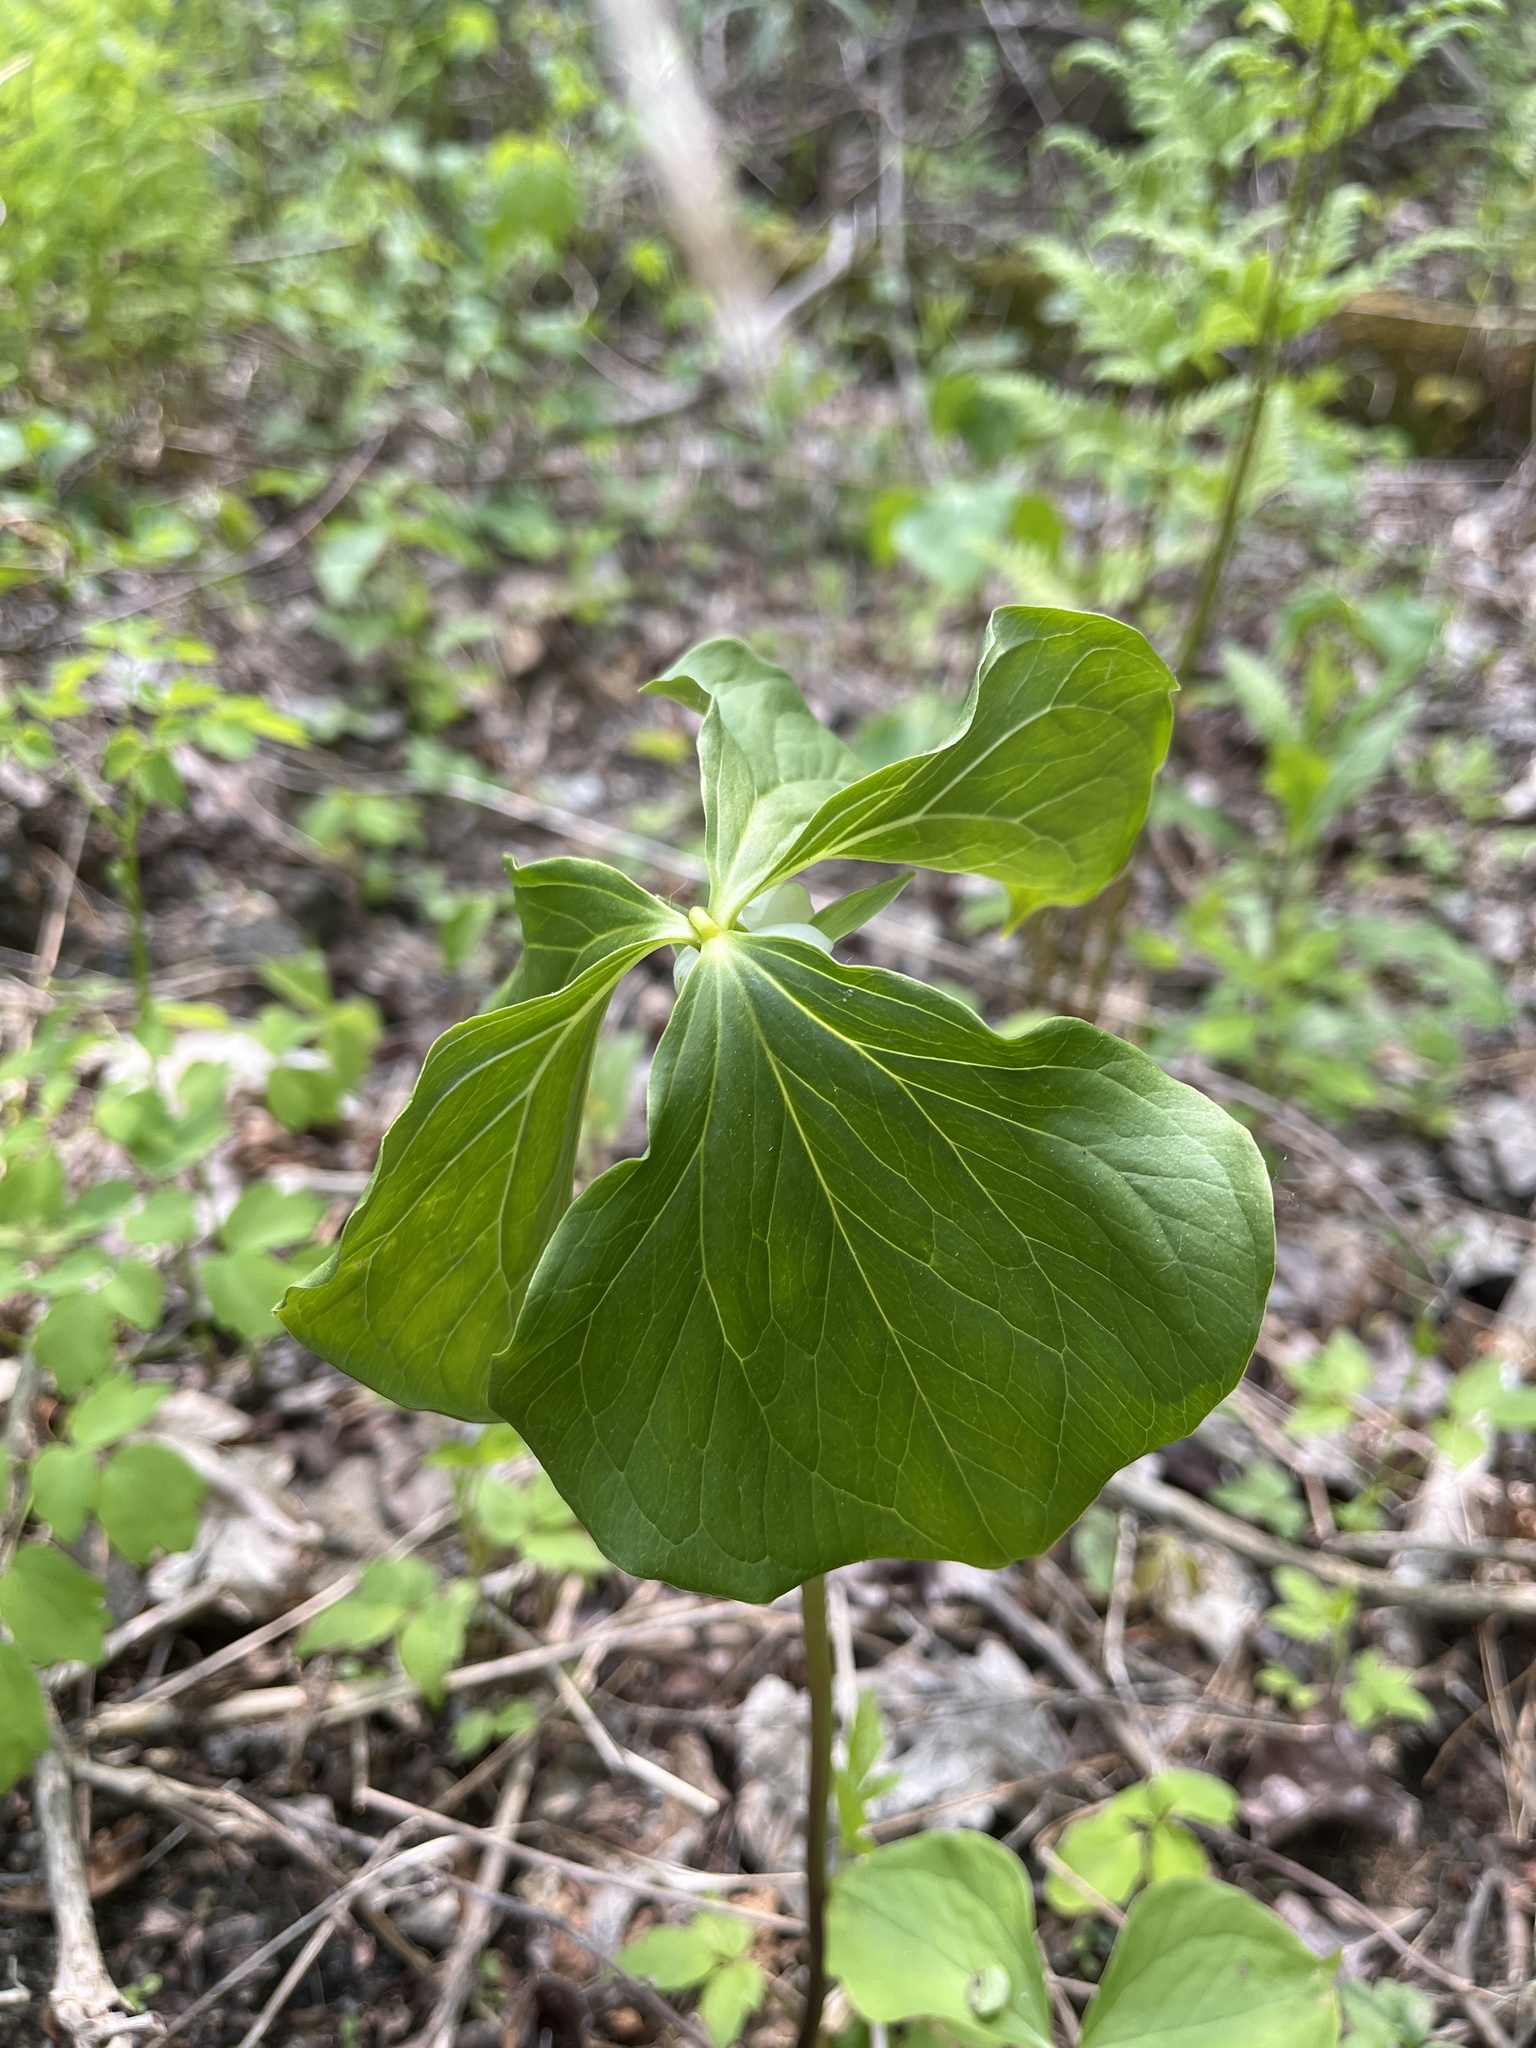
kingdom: Plantae
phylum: Tracheophyta
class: Liliopsida
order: Liliales
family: Melanthiaceae
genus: Trillium
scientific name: Trillium cernuum
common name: Nodding trillium
